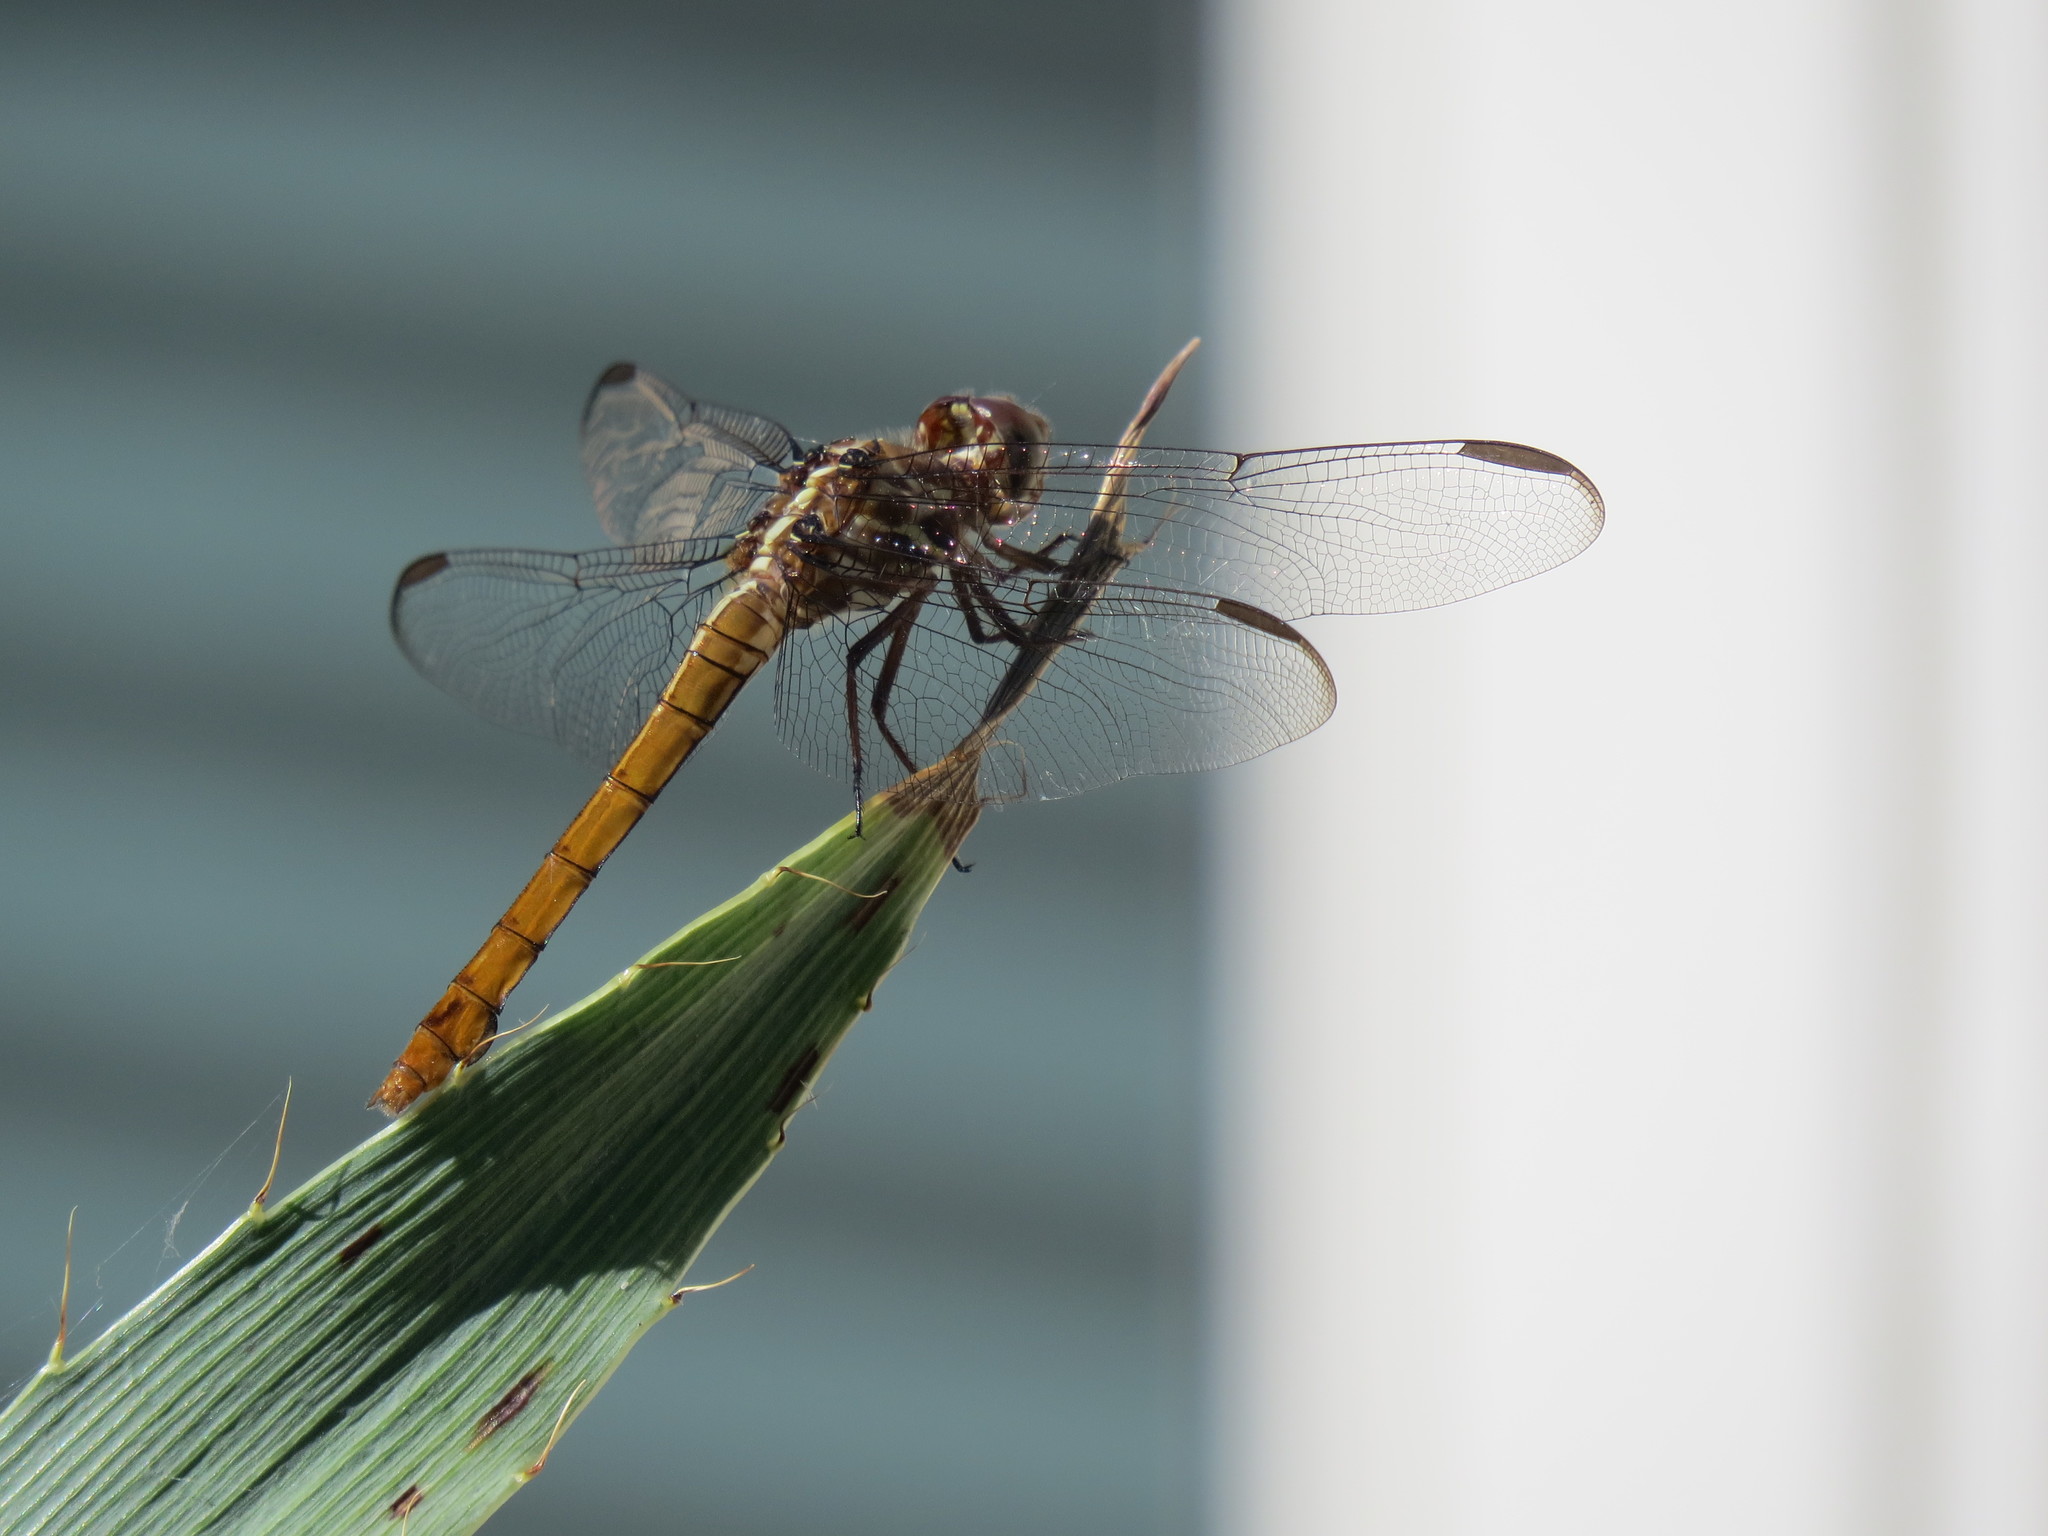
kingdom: Animalia
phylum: Arthropoda
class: Insecta
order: Odonata
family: Libellulidae
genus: Orthemis
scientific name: Orthemis ferruginea
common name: Roseate skimmer
